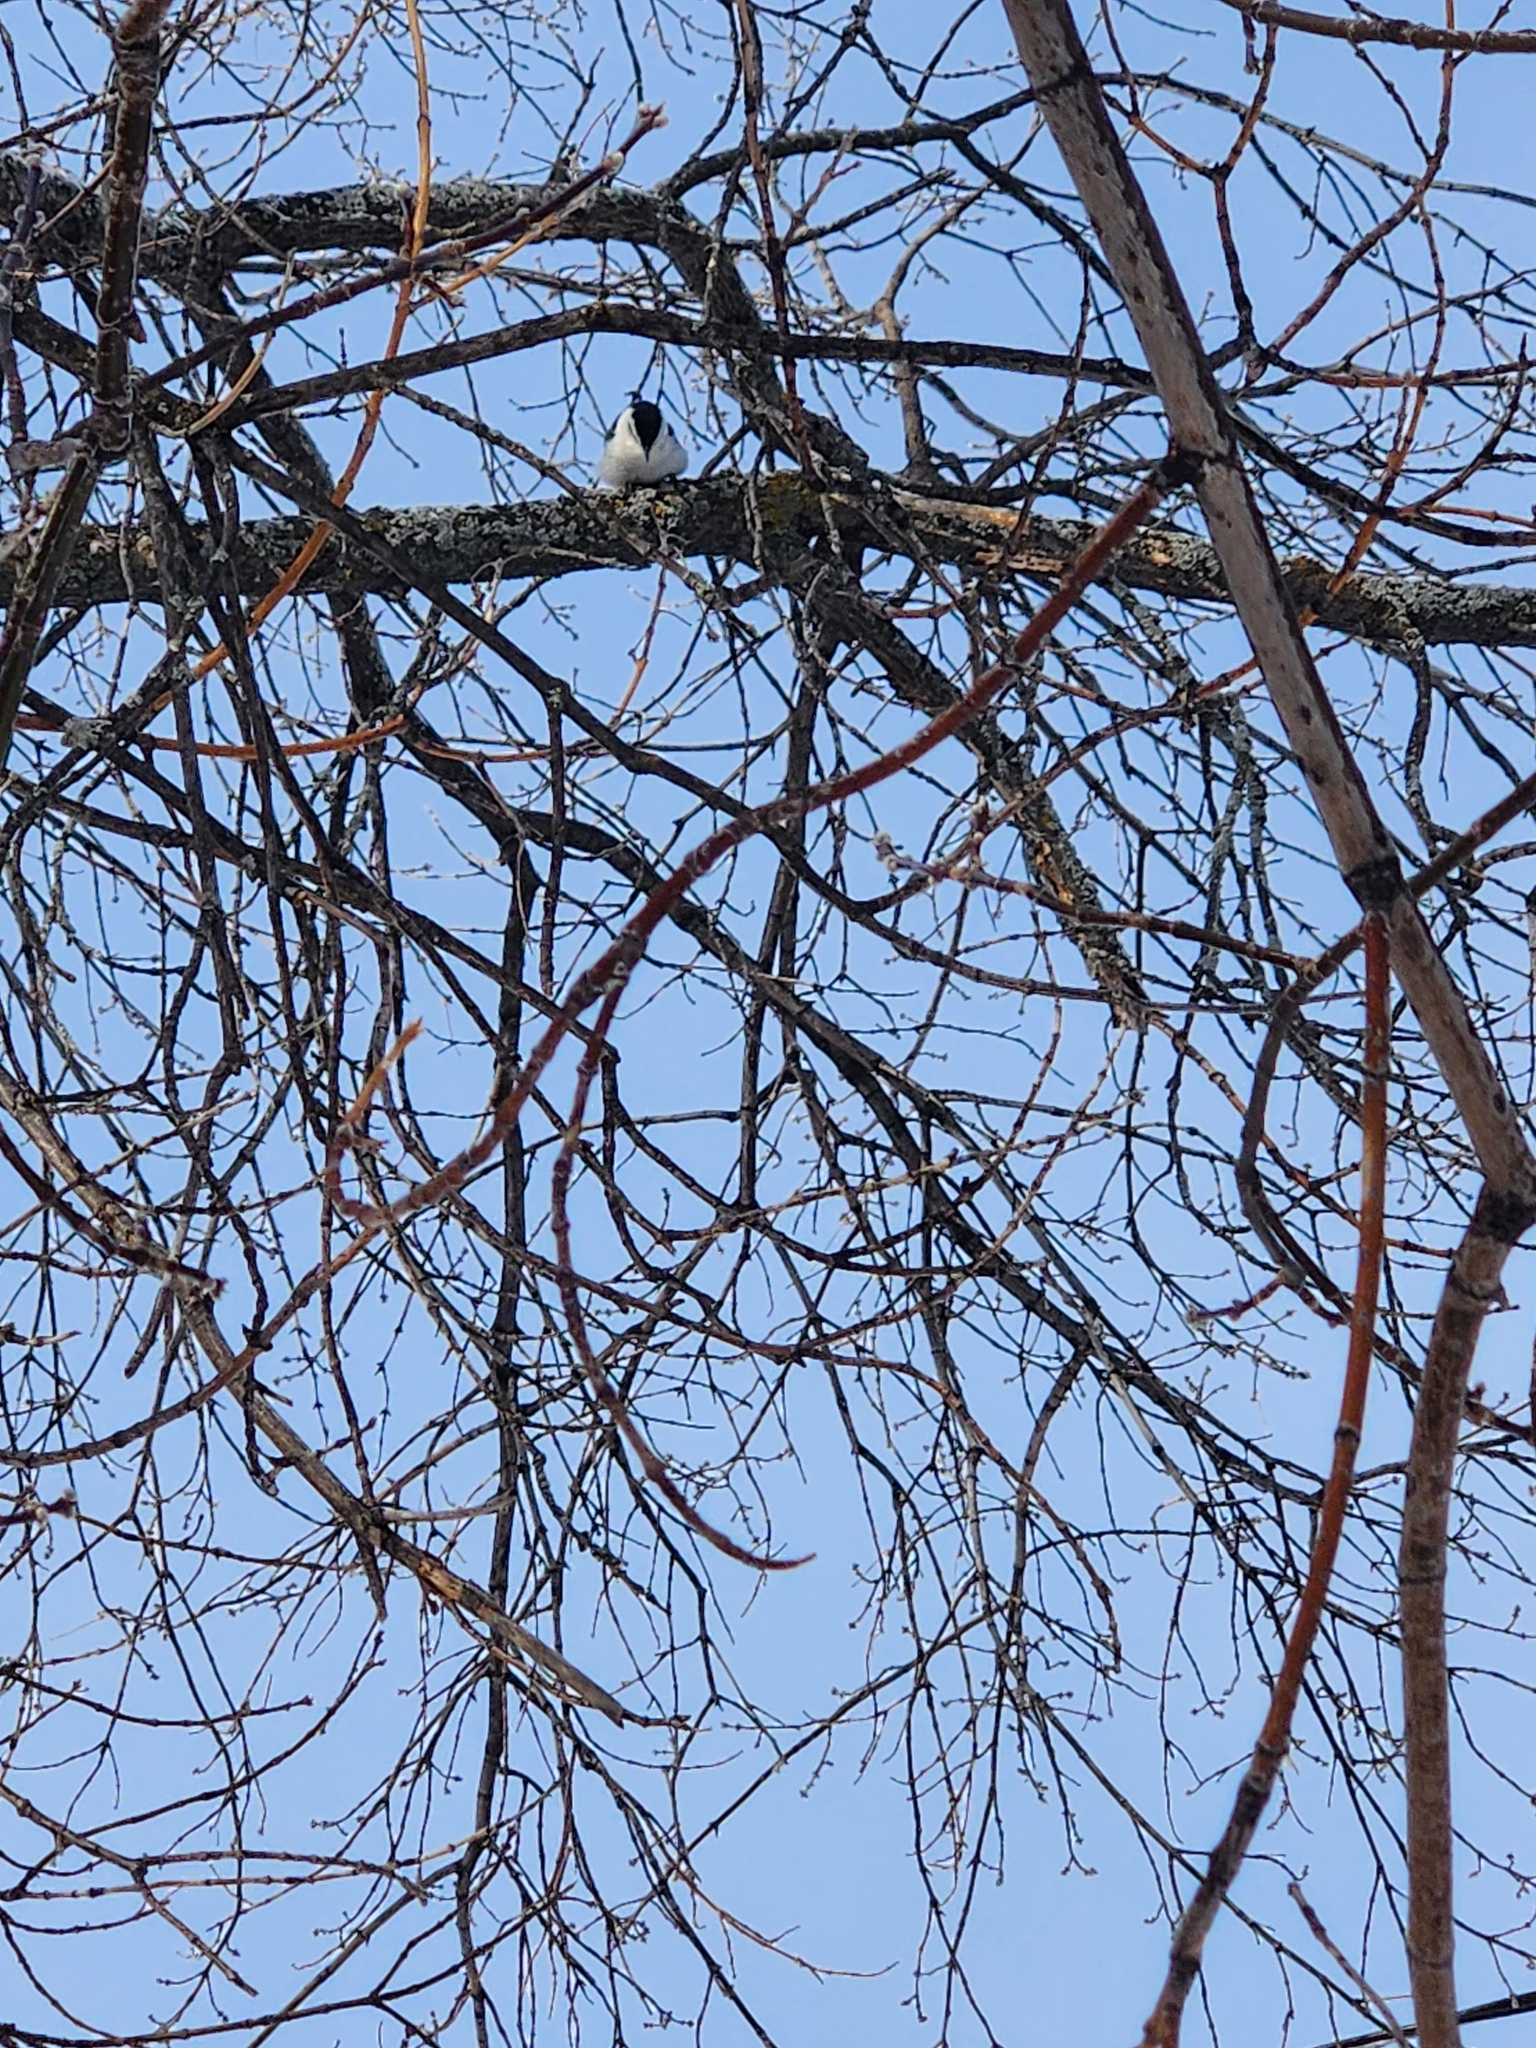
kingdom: Animalia
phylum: Chordata
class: Aves
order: Passeriformes
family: Sittidae
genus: Sitta
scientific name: Sitta carolinensis
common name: White-breasted nuthatch
